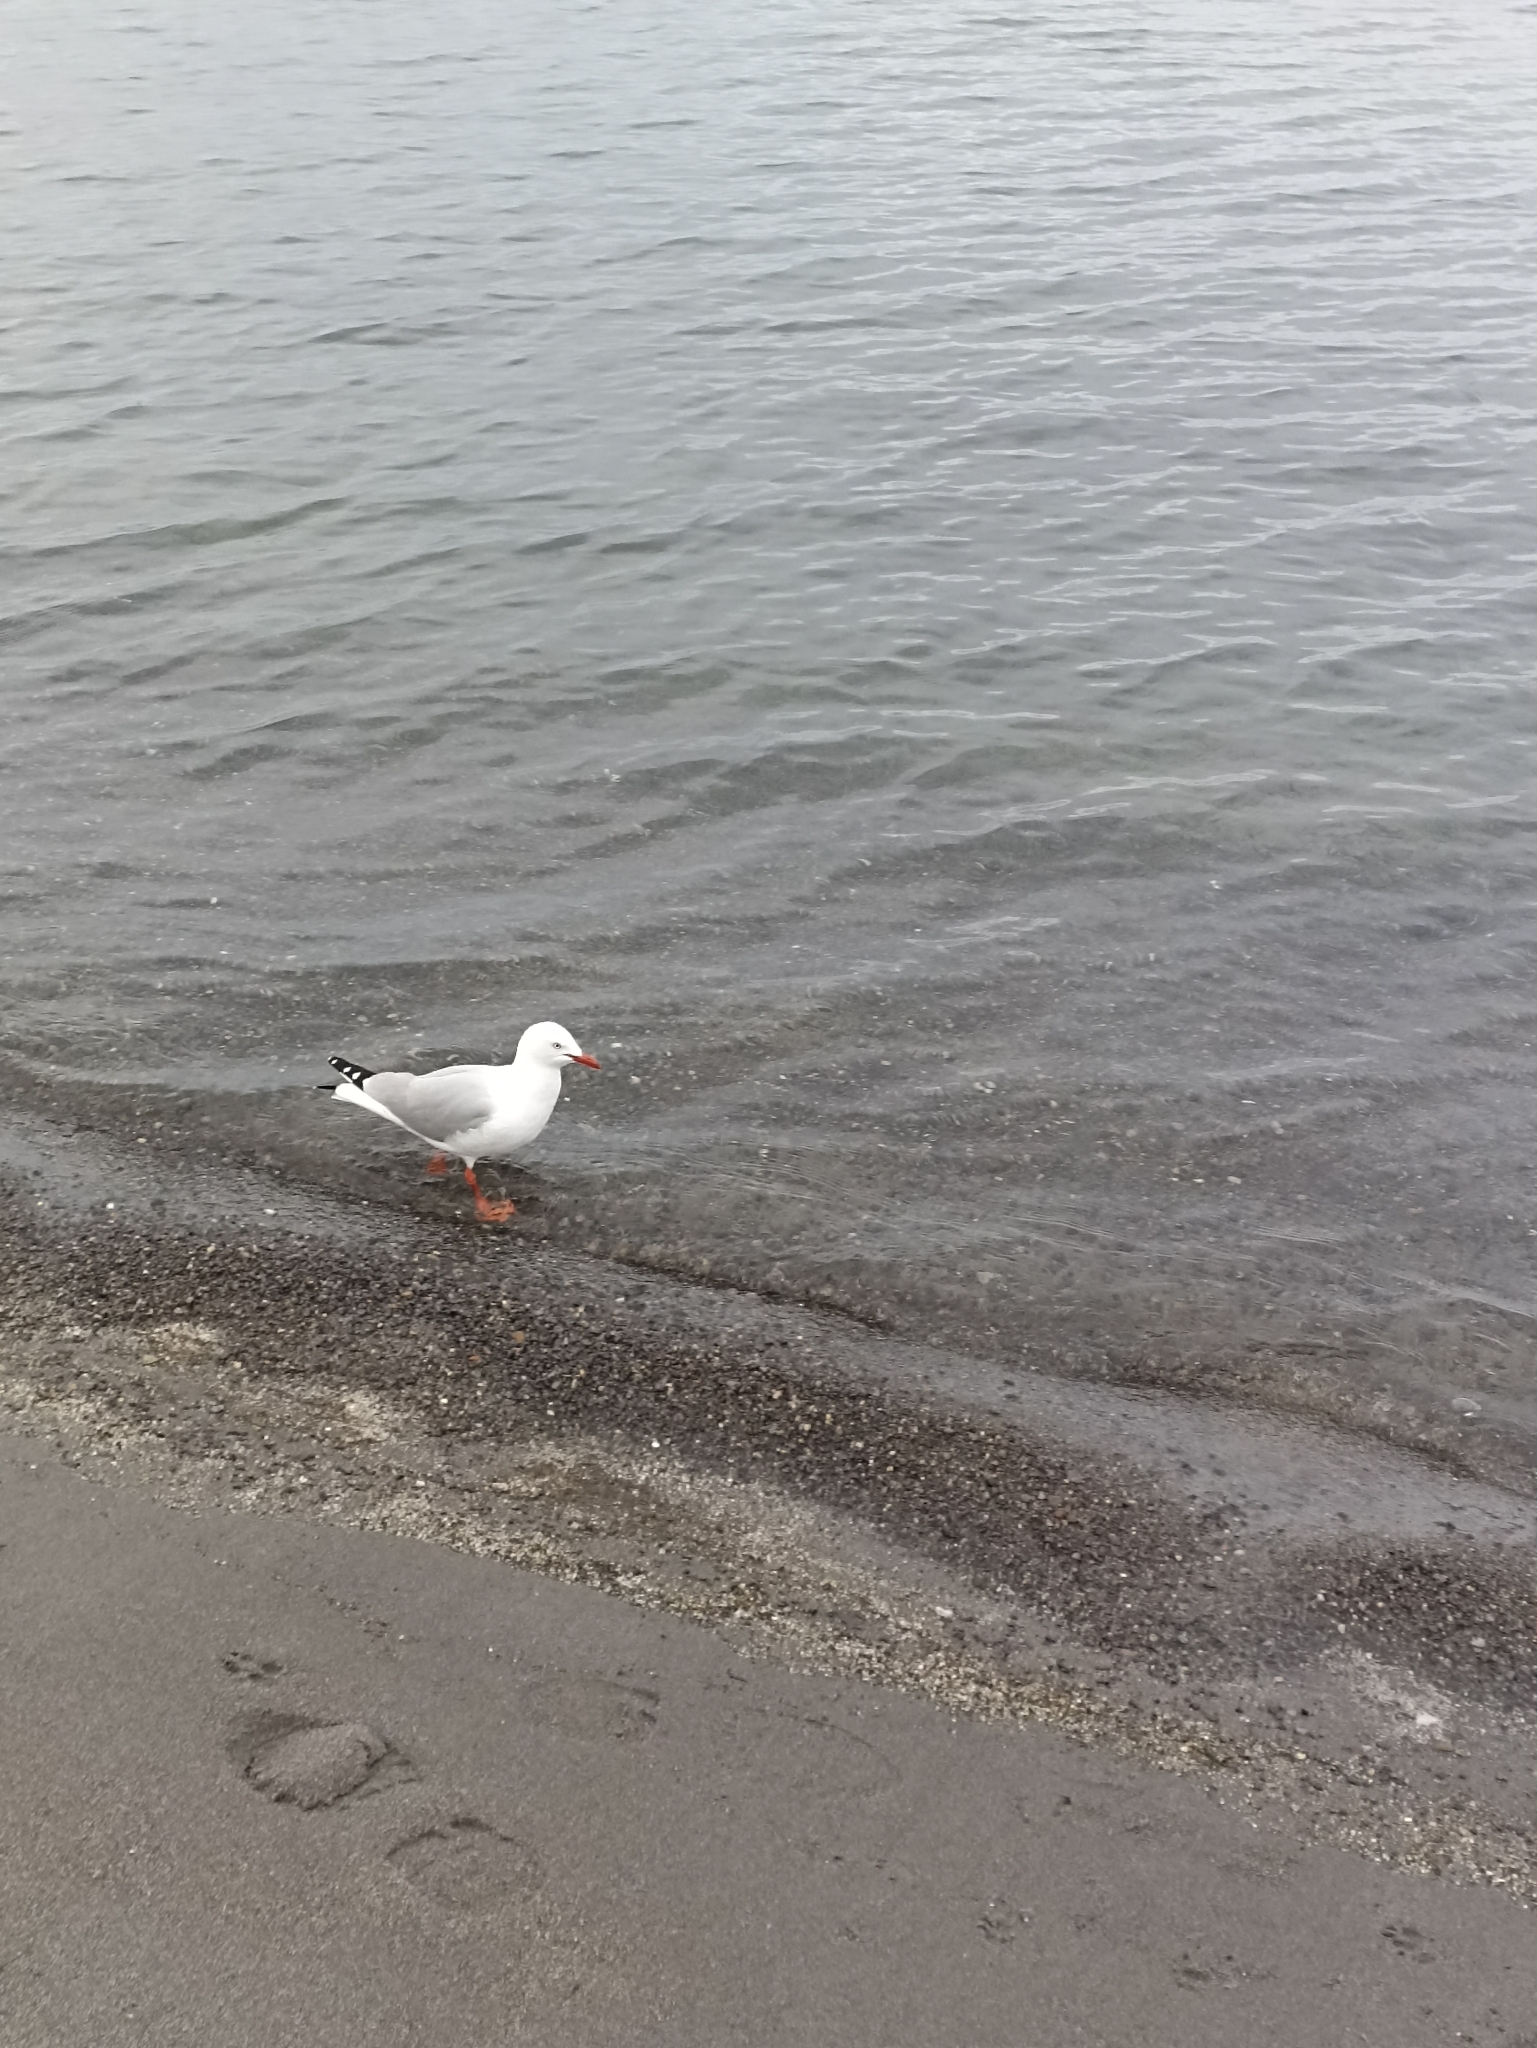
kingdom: Animalia
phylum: Chordata
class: Aves
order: Charadriiformes
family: Laridae
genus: Chroicocephalus
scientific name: Chroicocephalus novaehollandiae
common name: Silver gull
